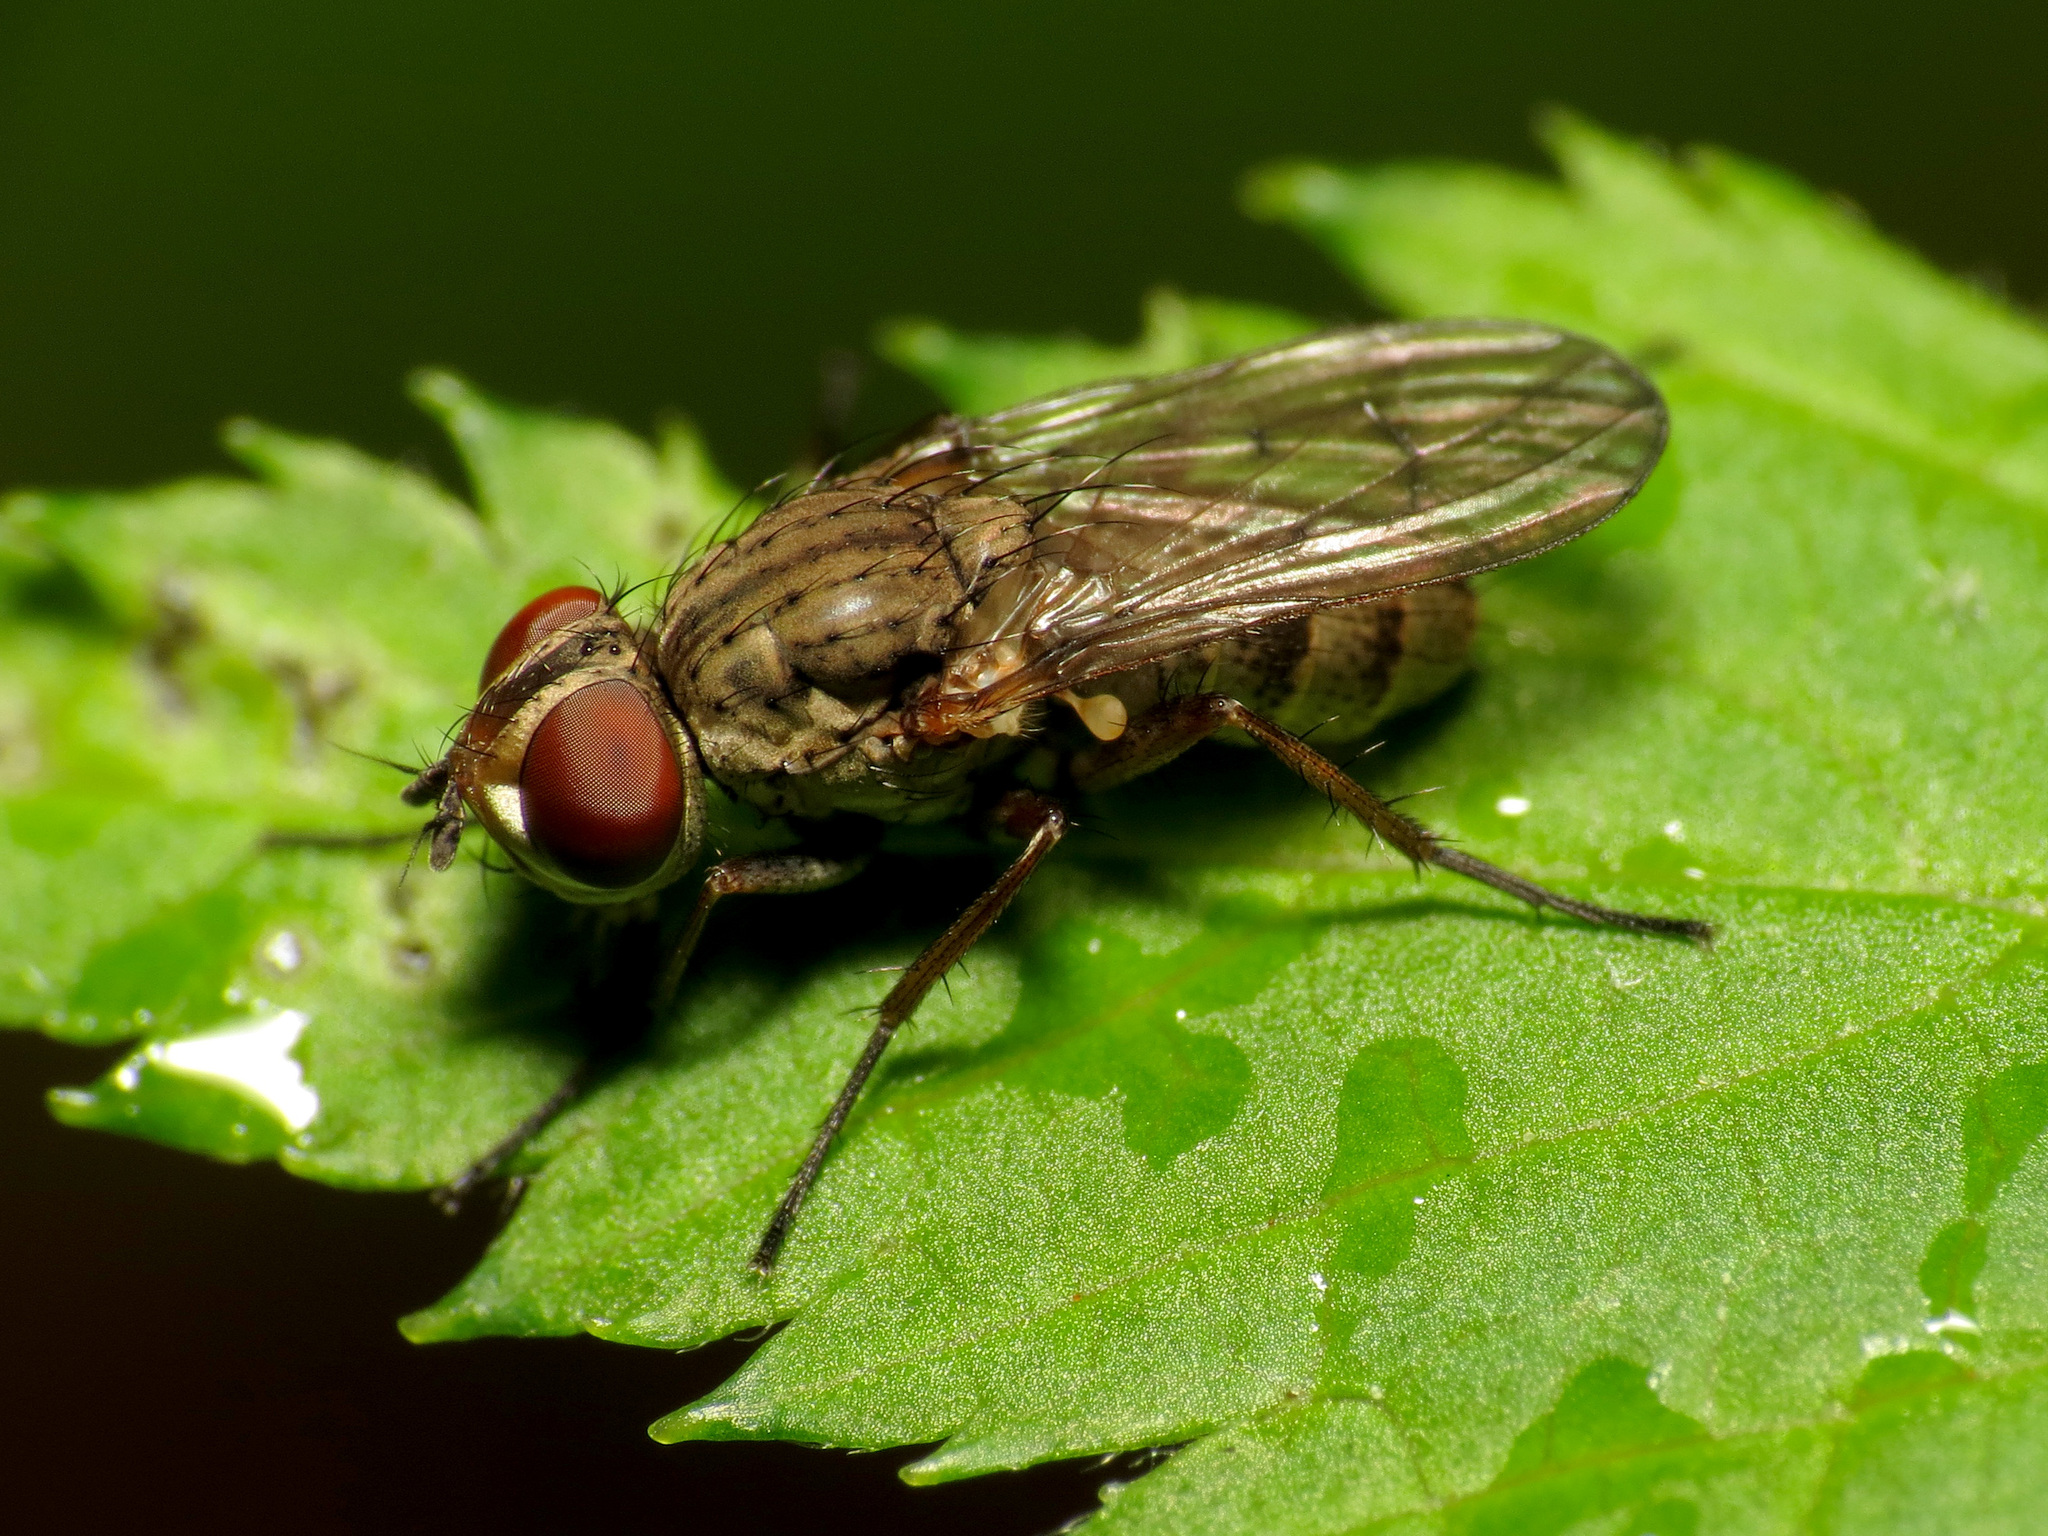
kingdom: Animalia
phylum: Arthropoda
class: Insecta
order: Diptera
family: Anthomyiidae
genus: Leucophora
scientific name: Leucophora johnsoni
